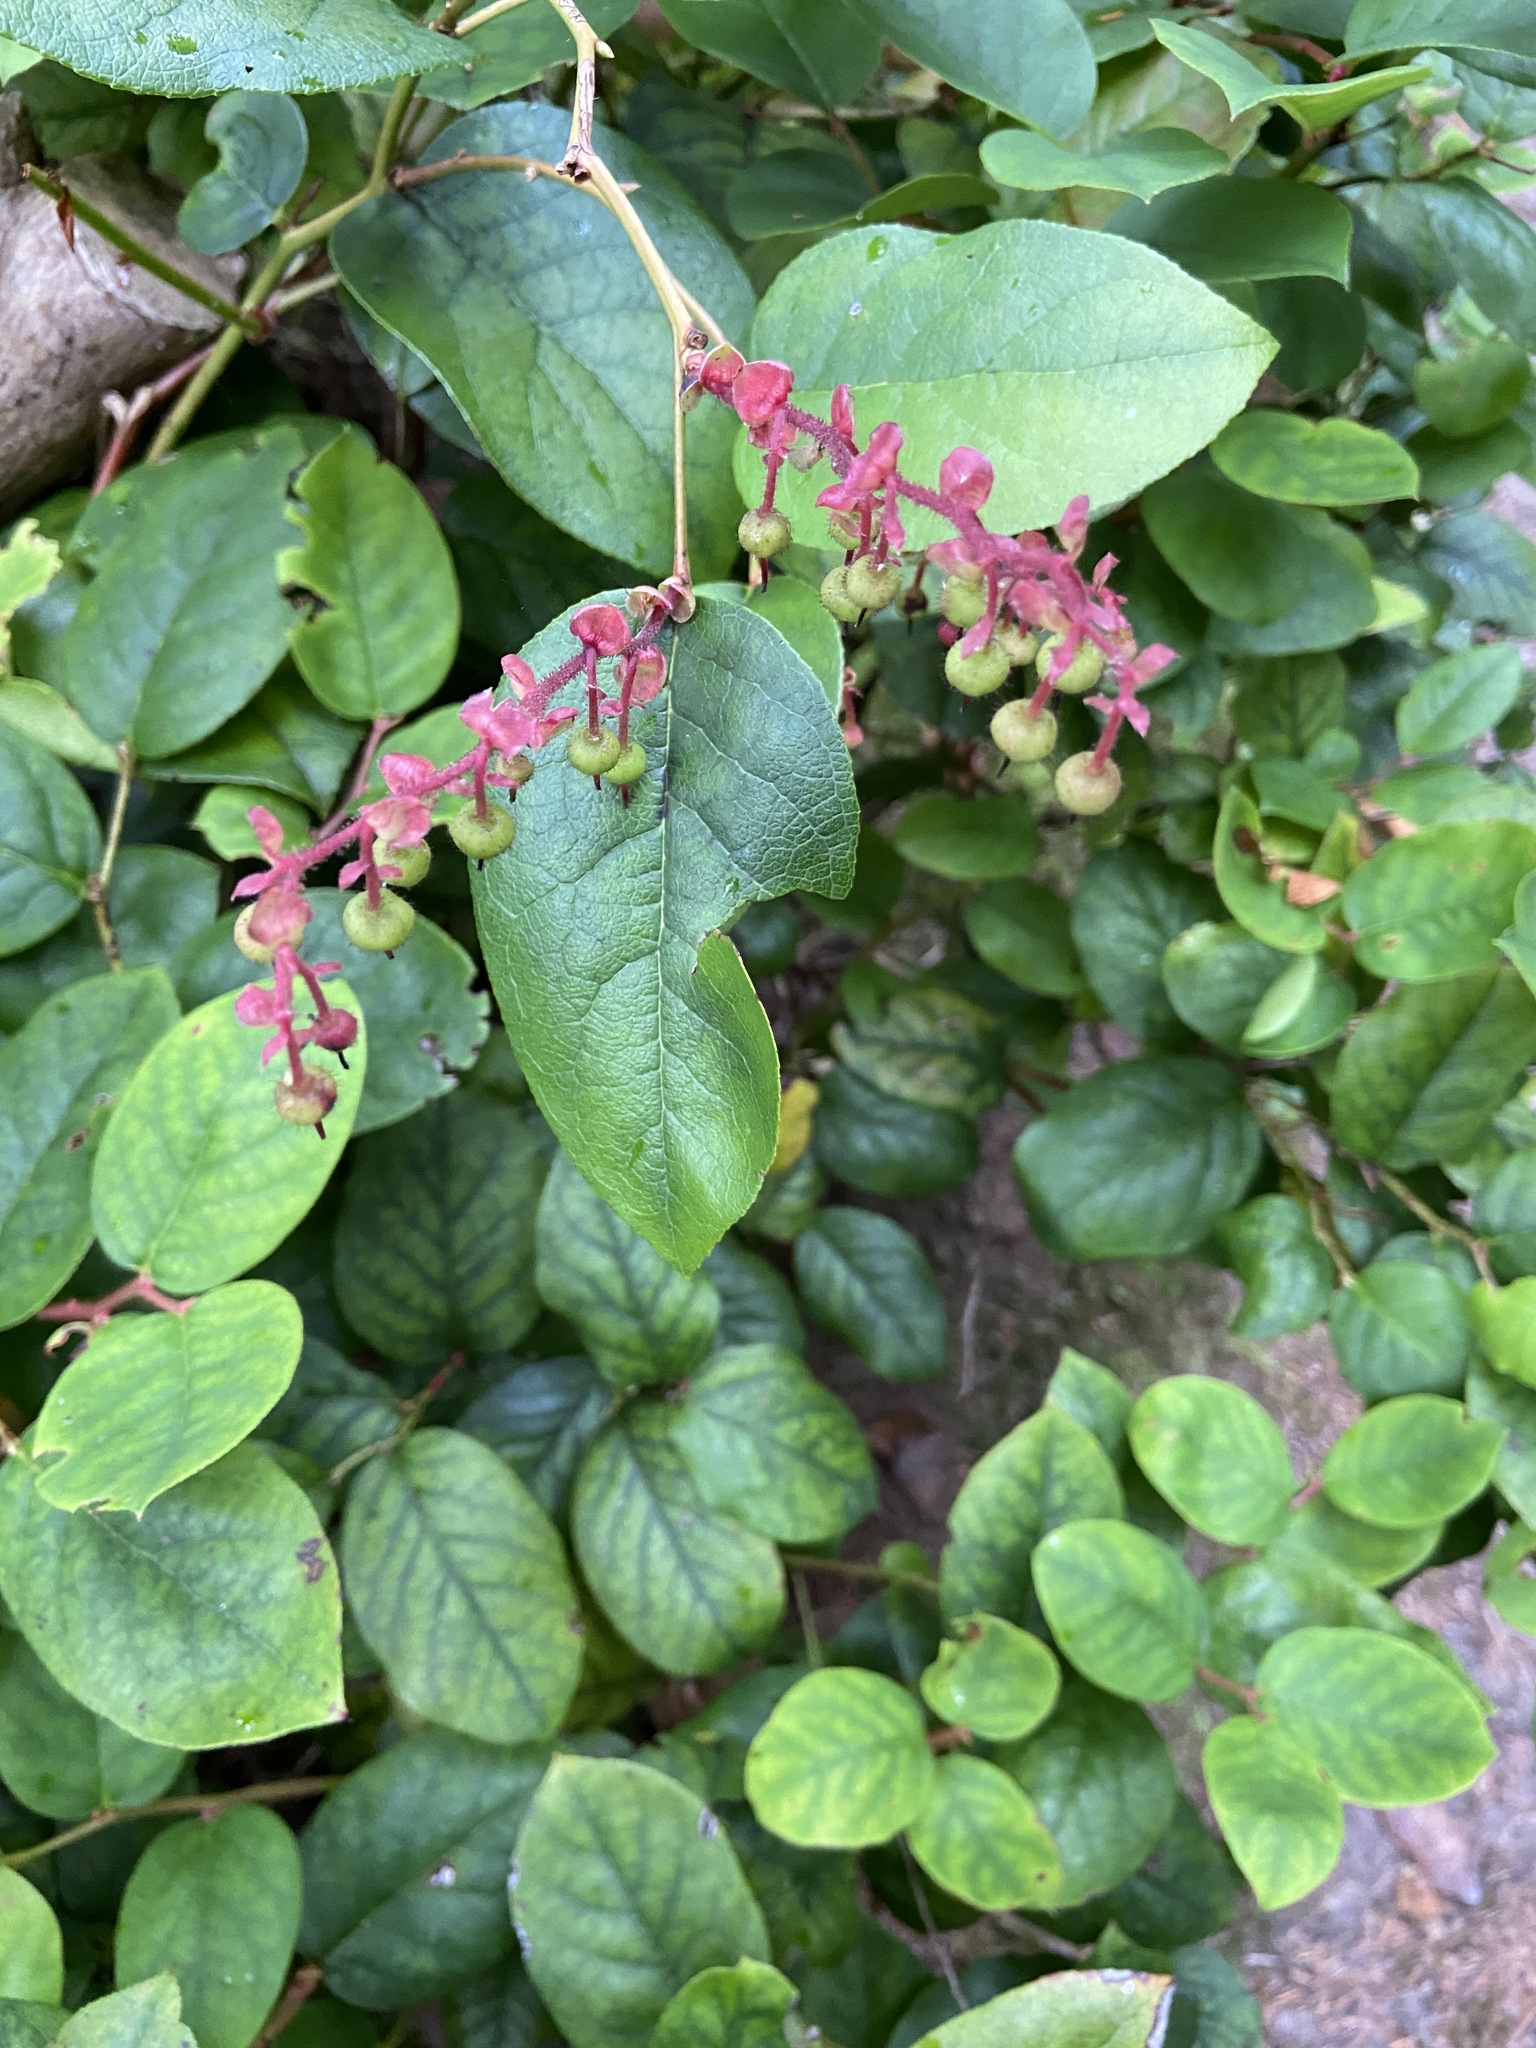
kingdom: Plantae
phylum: Tracheophyta
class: Magnoliopsida
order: Ericales
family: Ericaceae
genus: Gaultheria
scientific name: Gaultheria shallon
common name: Shallon
